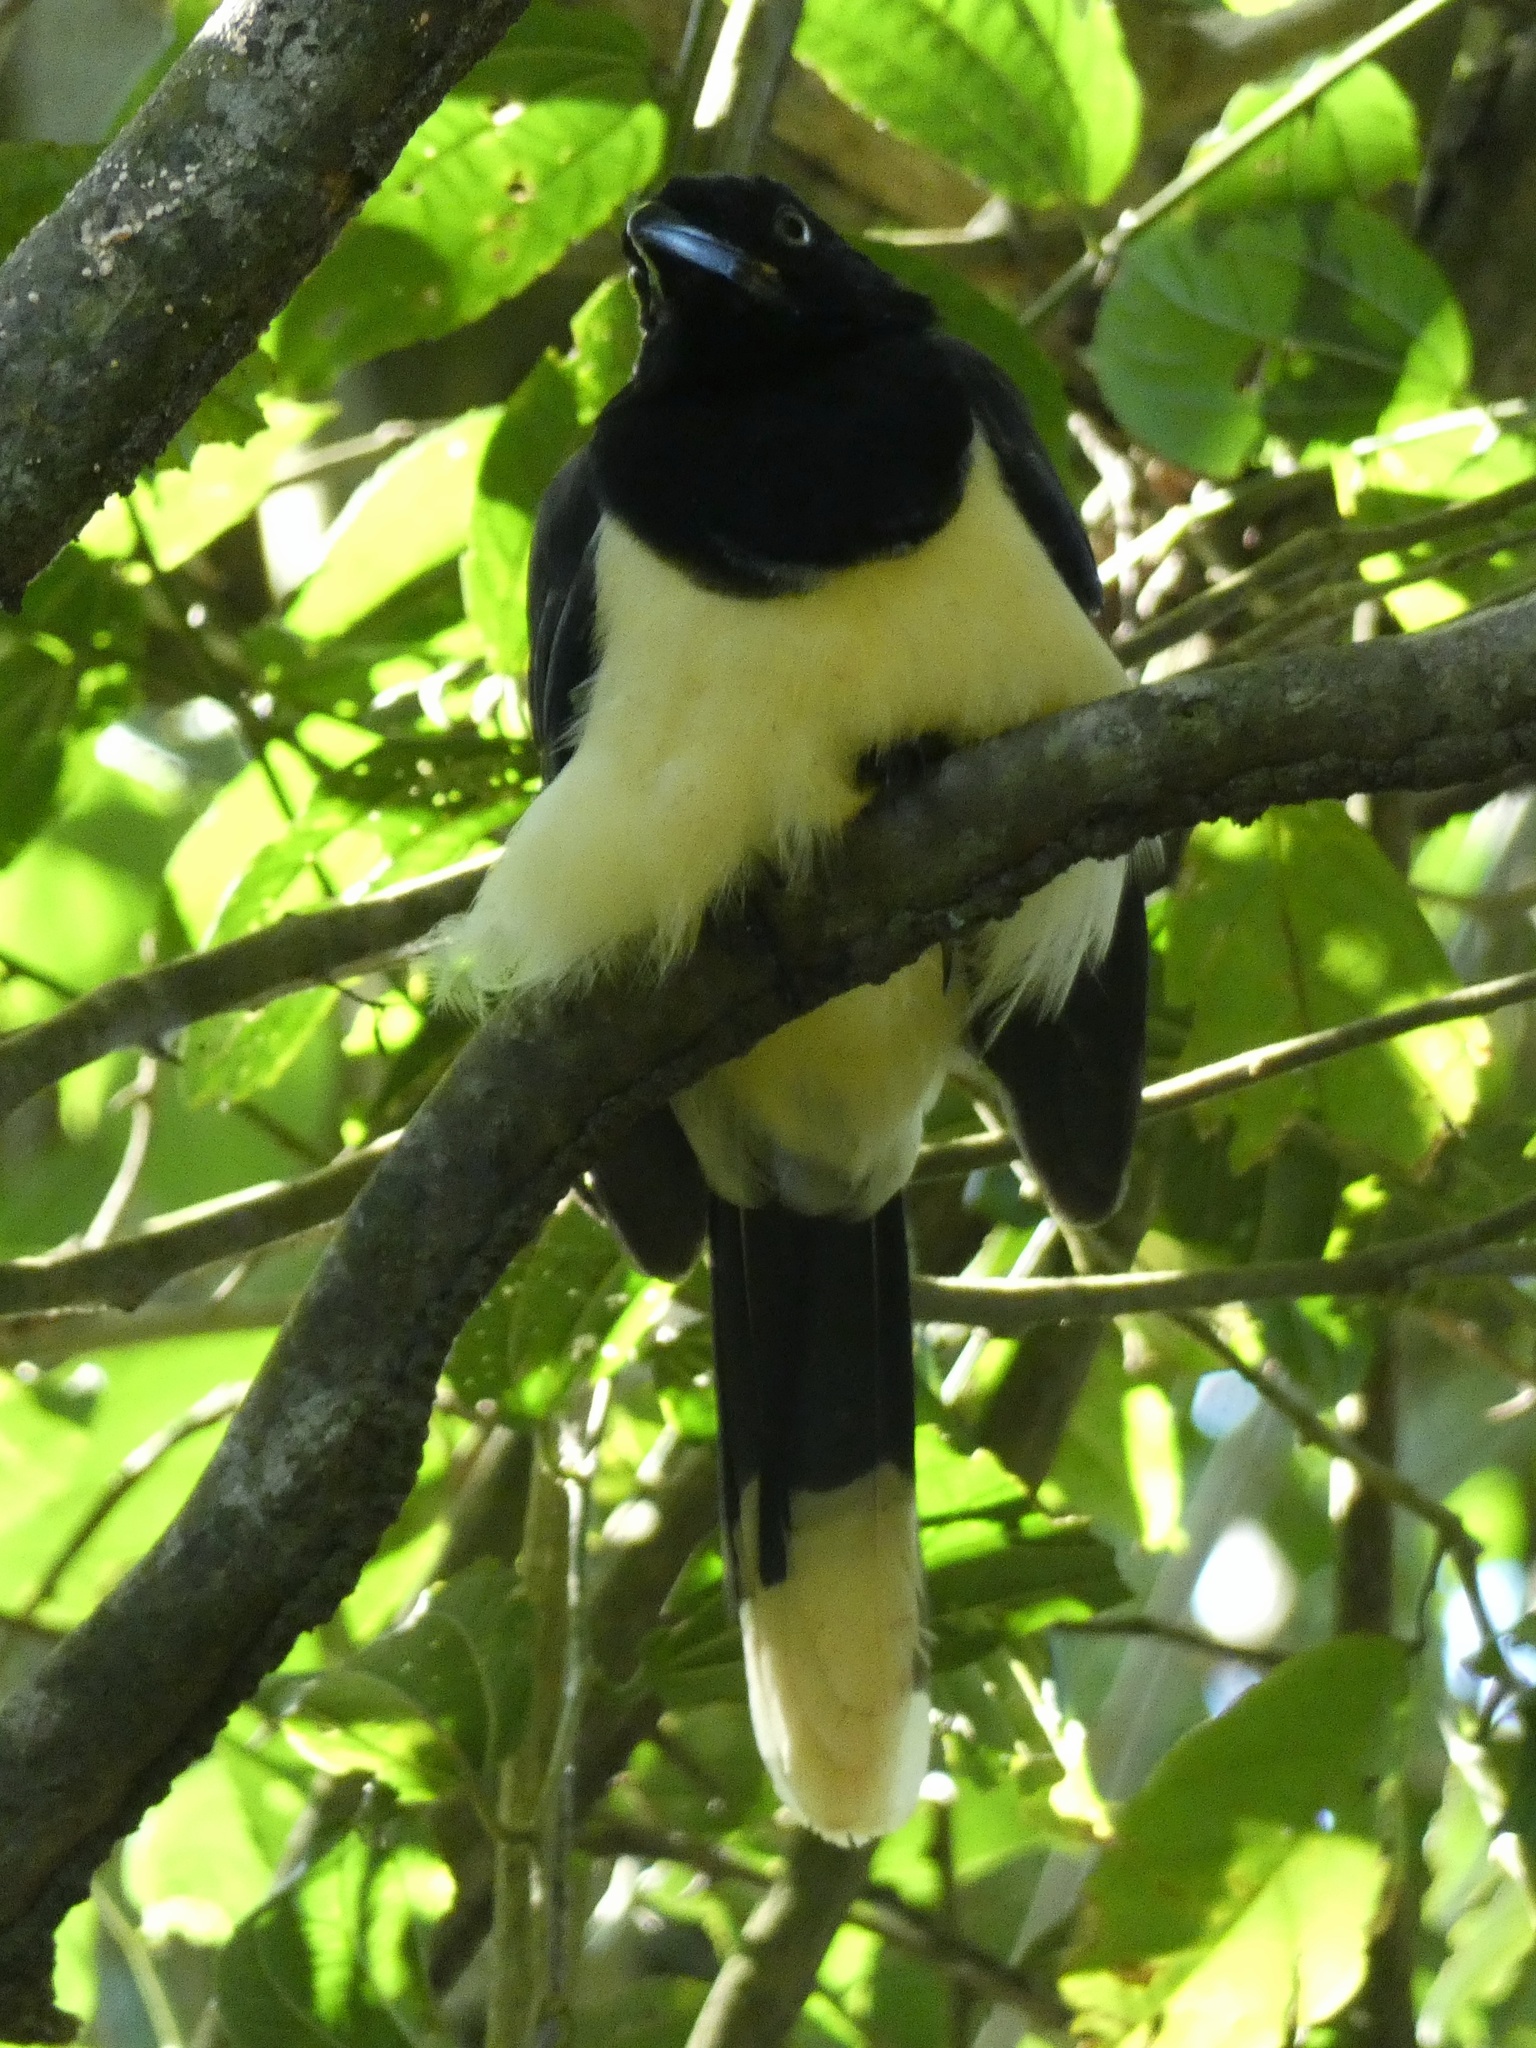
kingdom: Animalia
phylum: Chordata
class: Aves
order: Passeriformes
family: Corvidae
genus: Cyanocorax
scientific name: Cyanocorax affinis
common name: Black-chested jay
